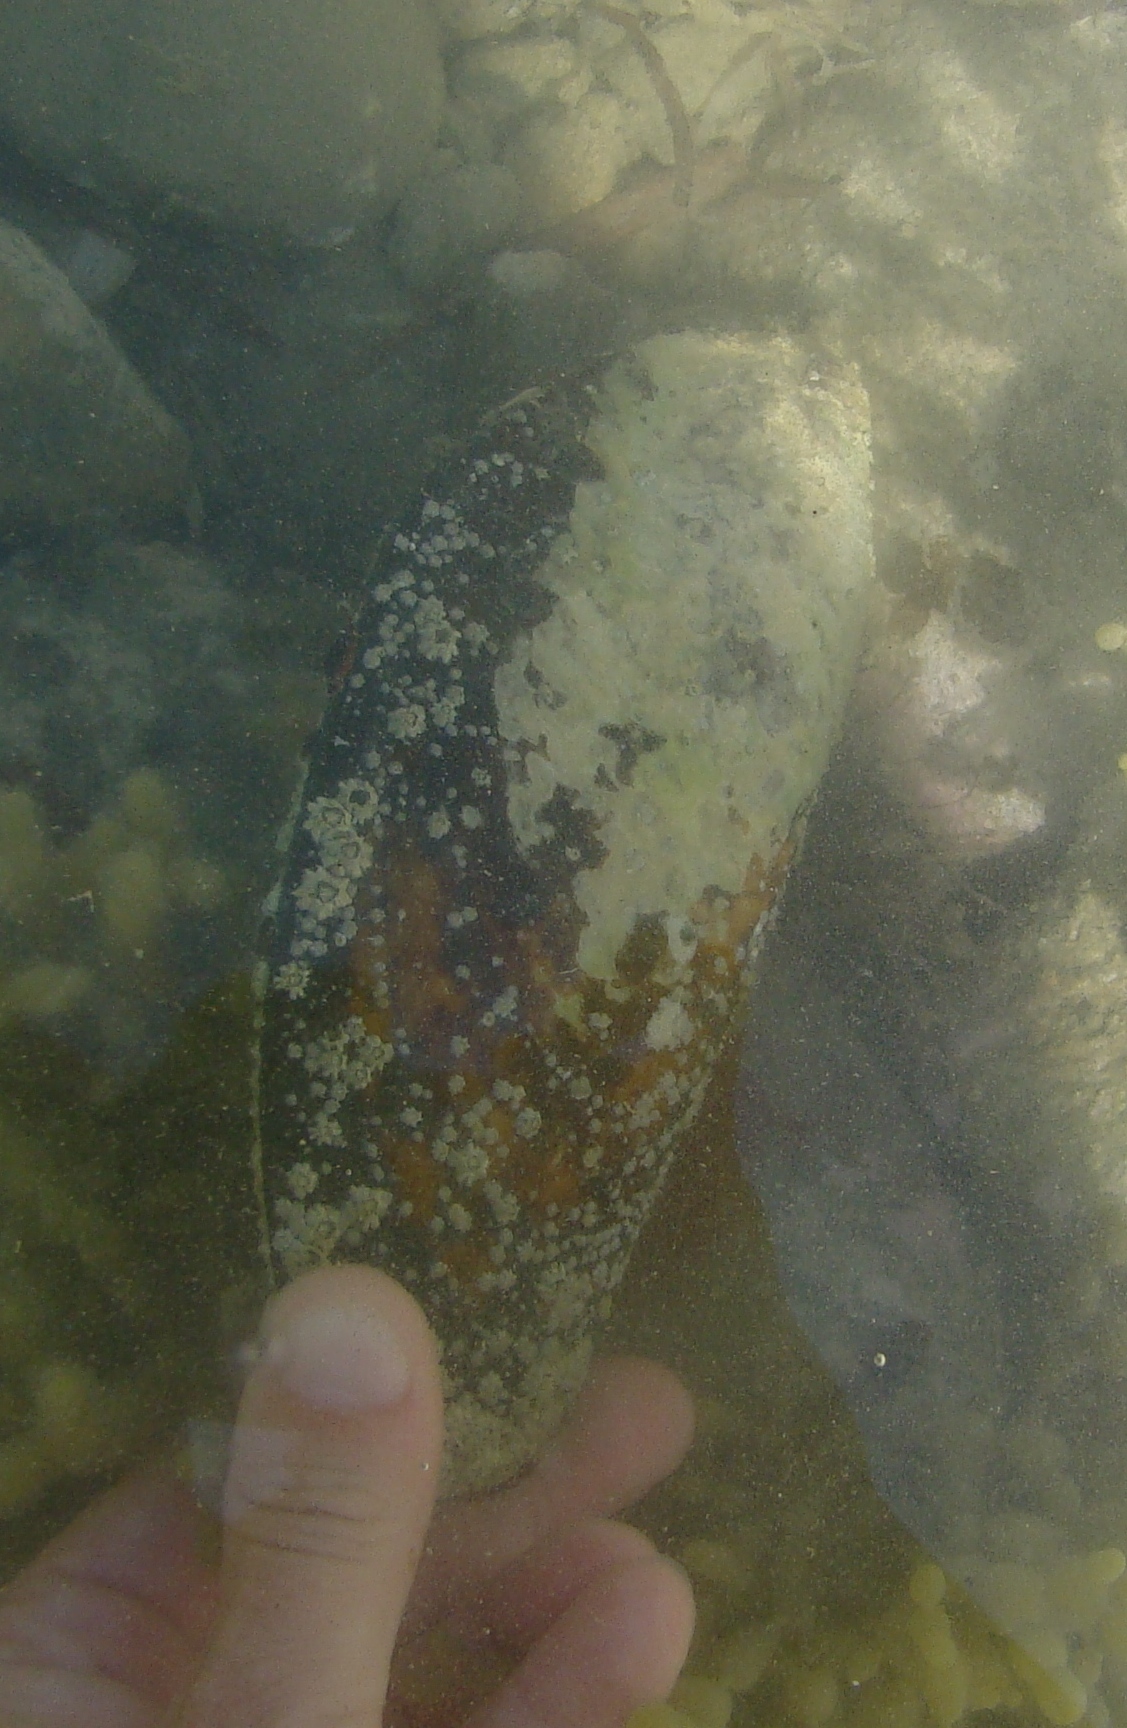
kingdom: Animalia
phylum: Mollusca
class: Bivalvia
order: Mytilida
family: Mytilidae
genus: Perna
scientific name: Perna canaliculus
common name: New zealand greenshelltm
